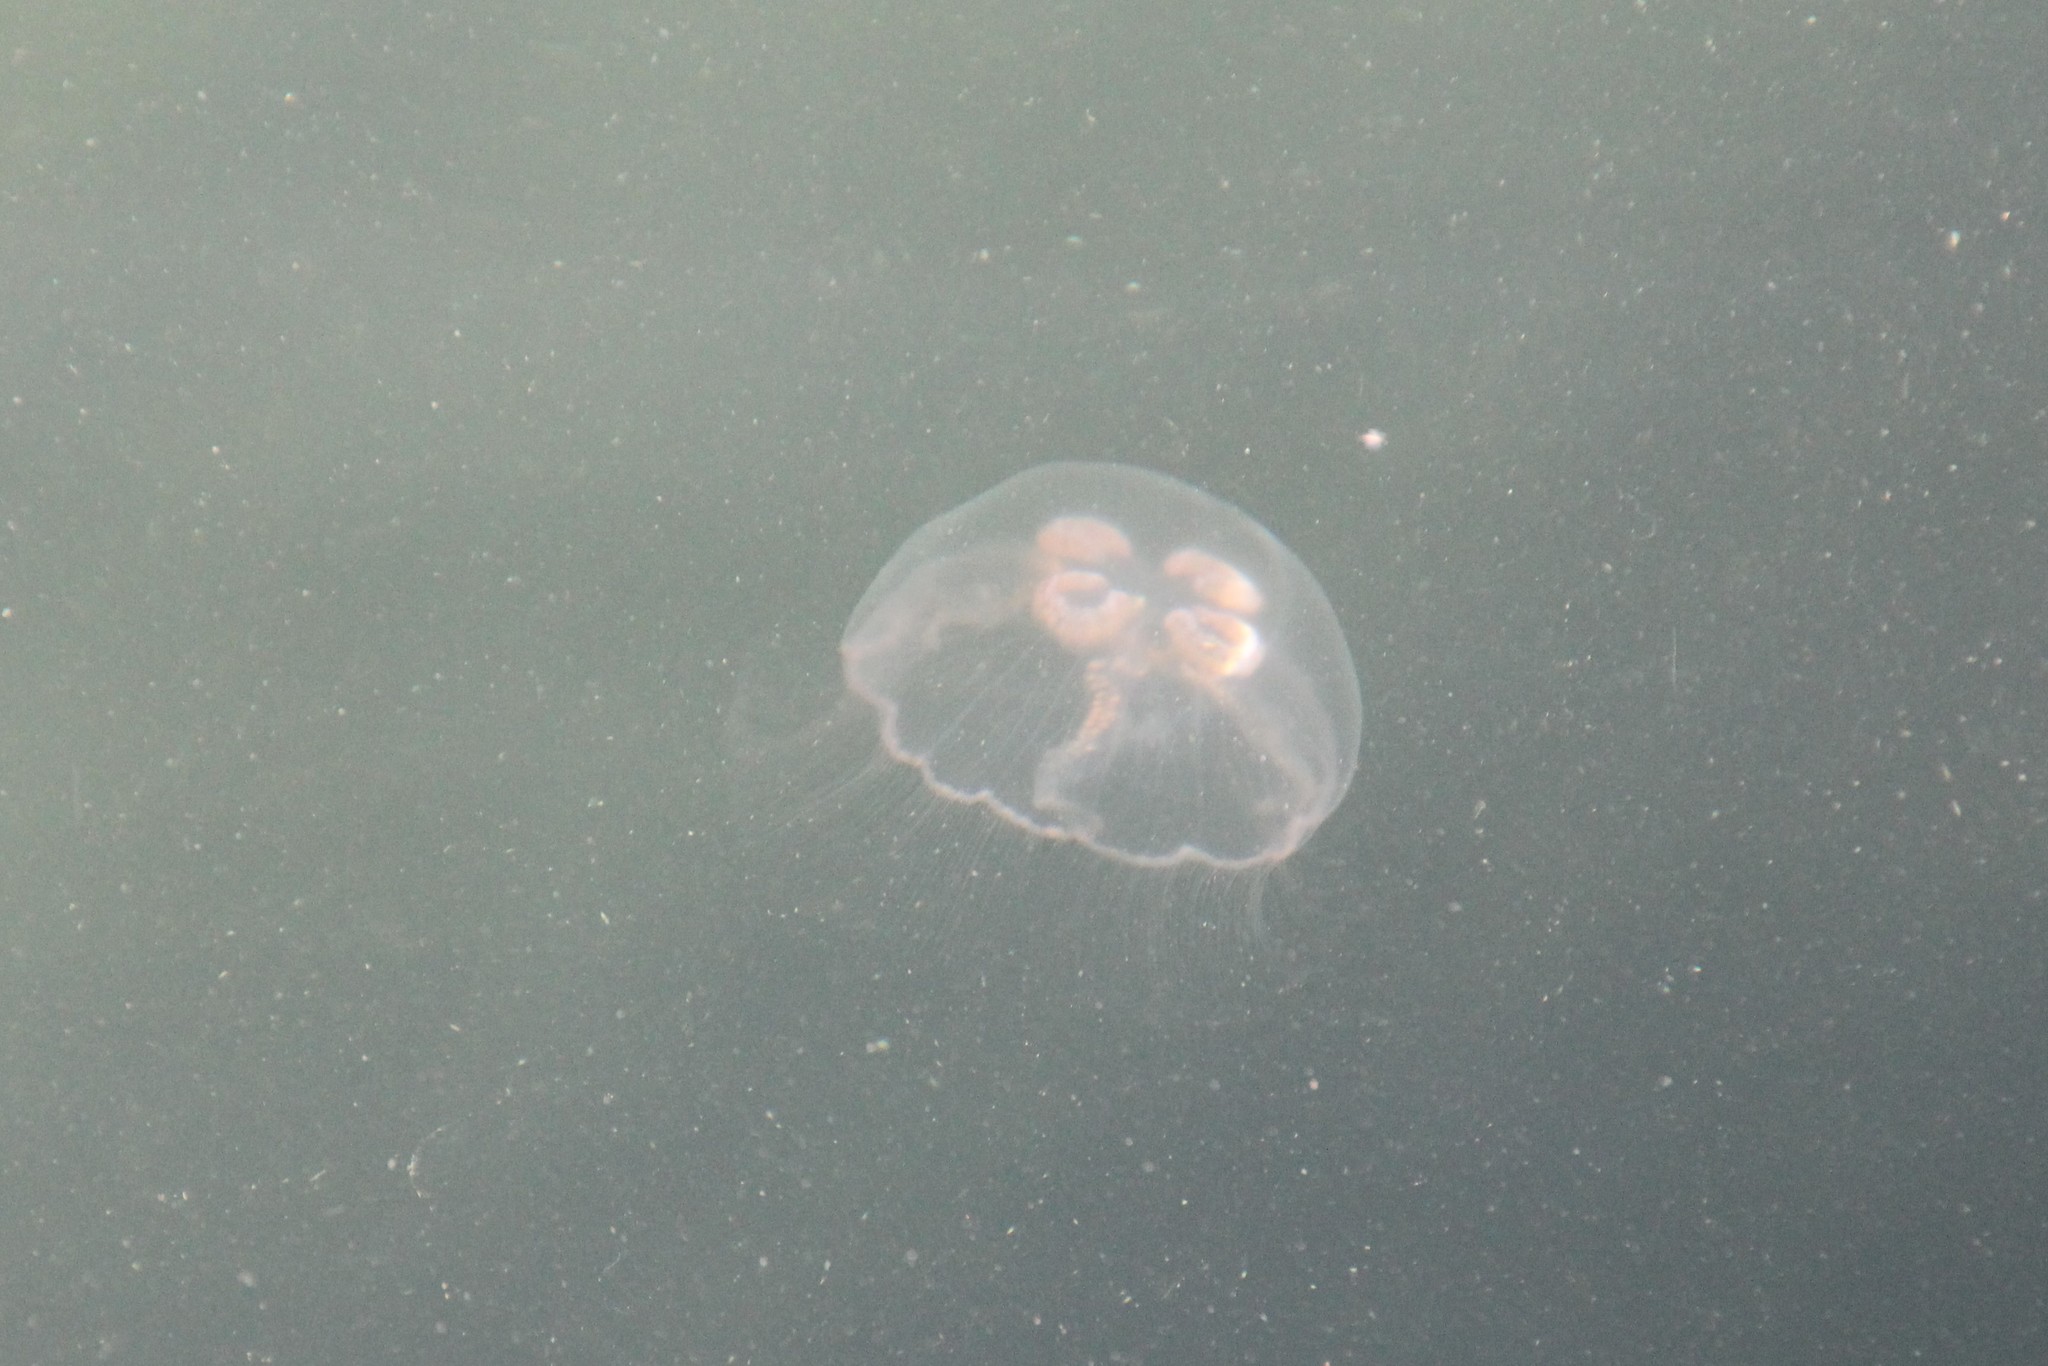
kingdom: Animalia
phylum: Cnidaria
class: Scyphozoa
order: Semaeostomeae
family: Ulmaridae
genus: Aurelia
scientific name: Aurelia aurita
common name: Moon jellyfish
